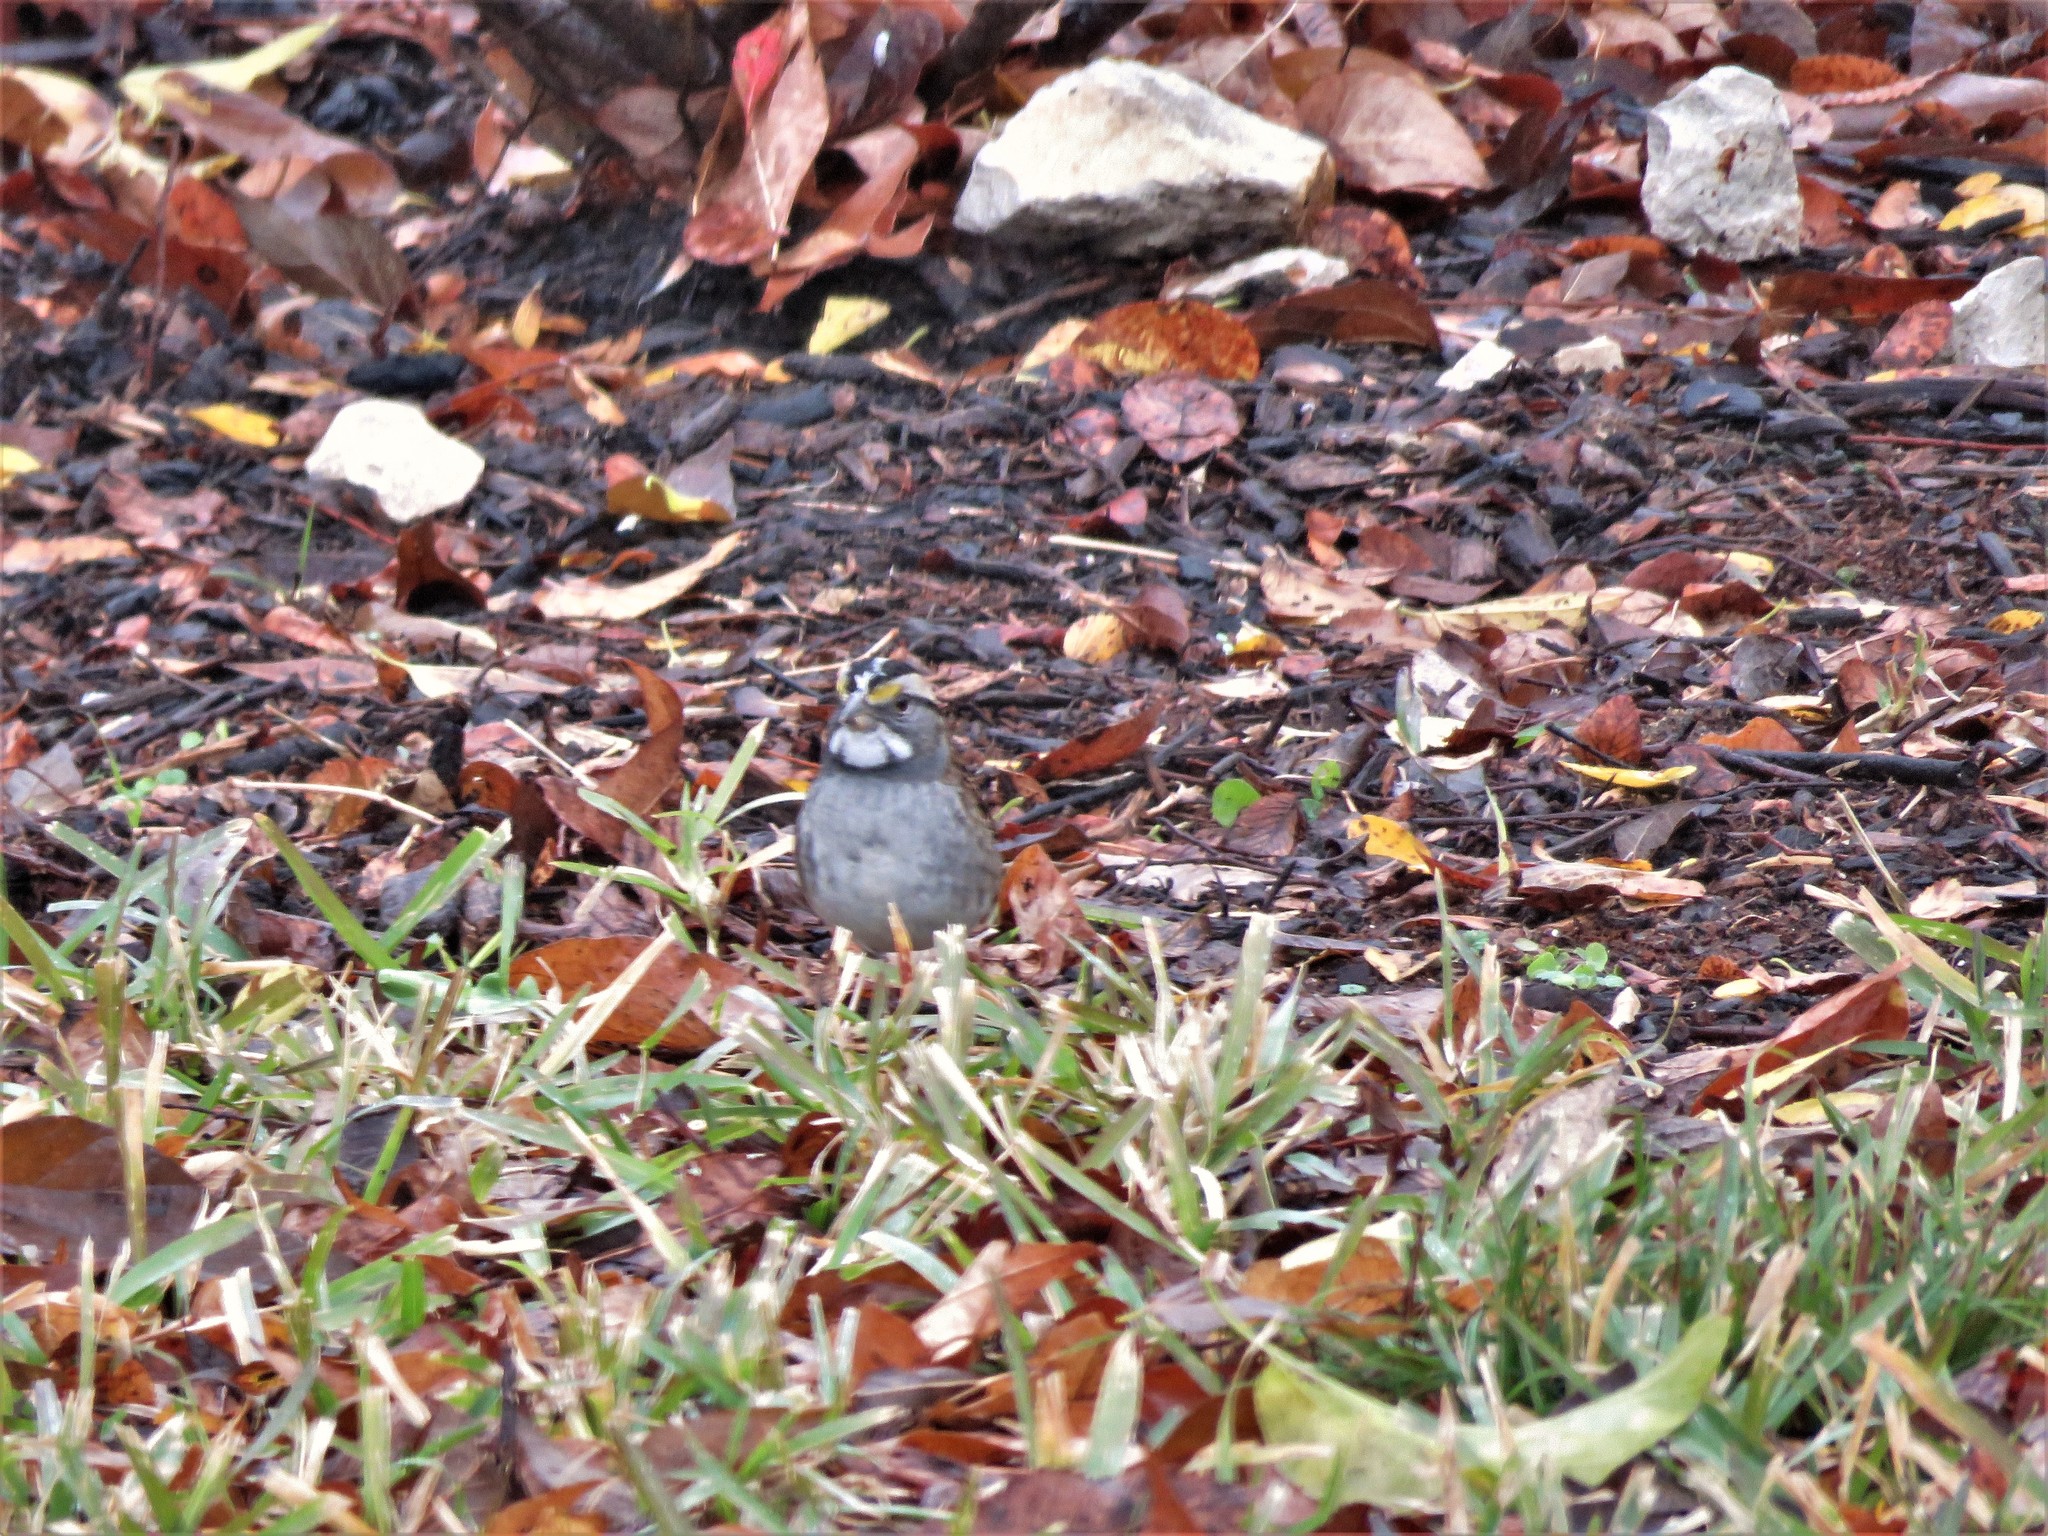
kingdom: Animalia
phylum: Chordata
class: Aves
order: Passeriformes
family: Passerellidae
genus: Zonotrichia
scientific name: Zonotrichia albicollis
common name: White-throated sparrow
